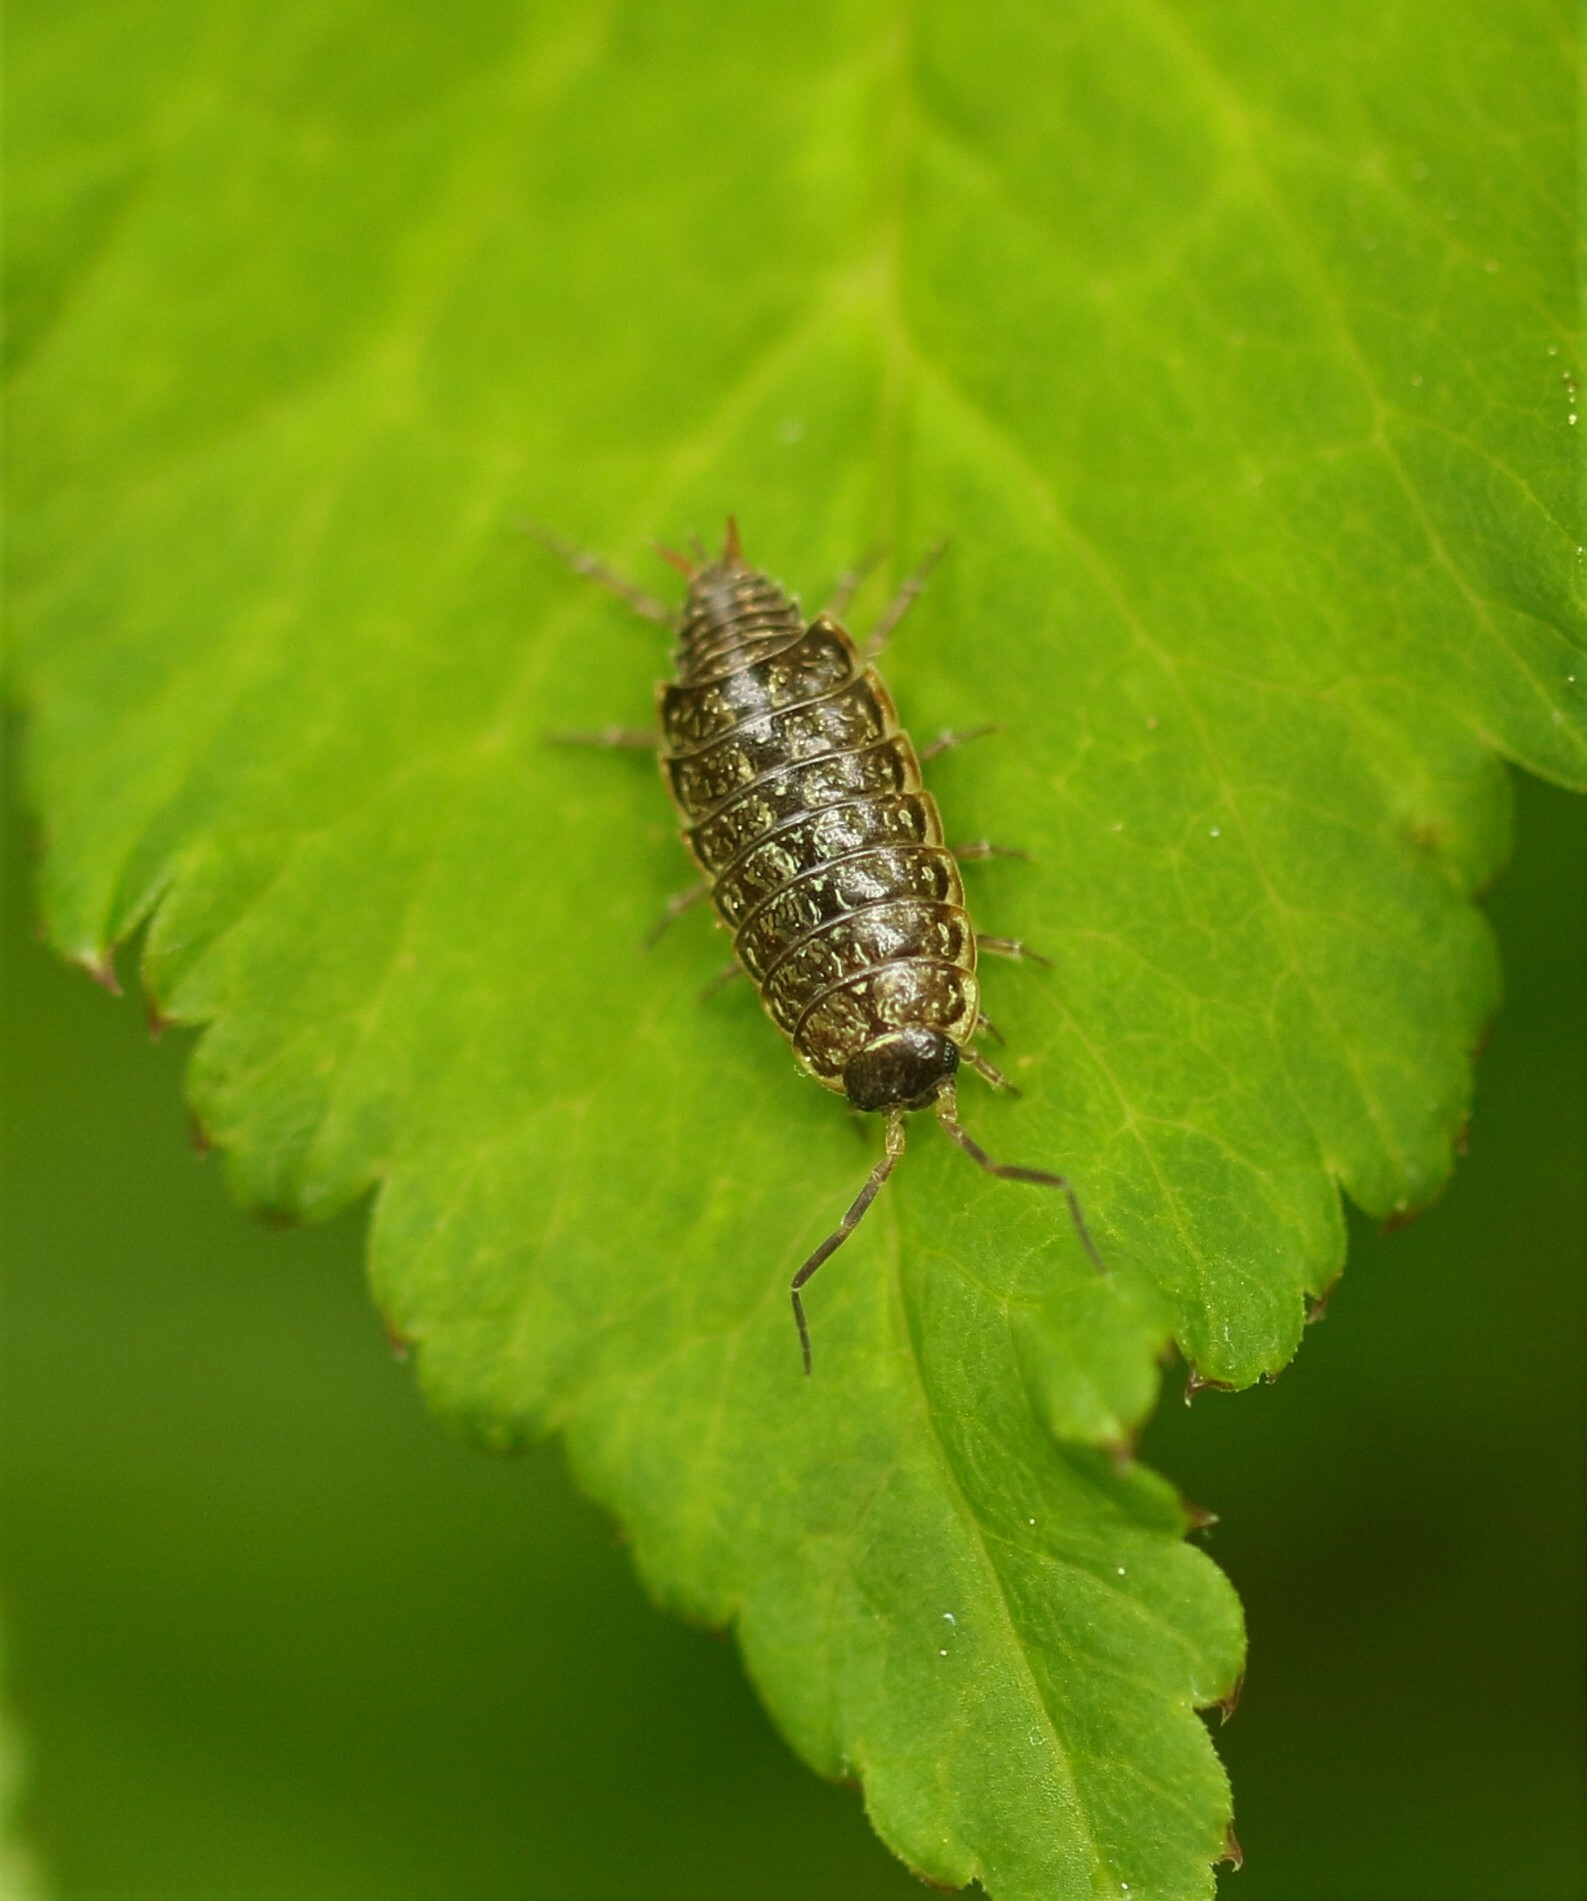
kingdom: Animalia
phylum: Arthropoda
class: Malacostraca
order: Isopoda
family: Philosciidae
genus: Philoscia
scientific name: Philoscia muscorum
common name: Common striped woodlouse
